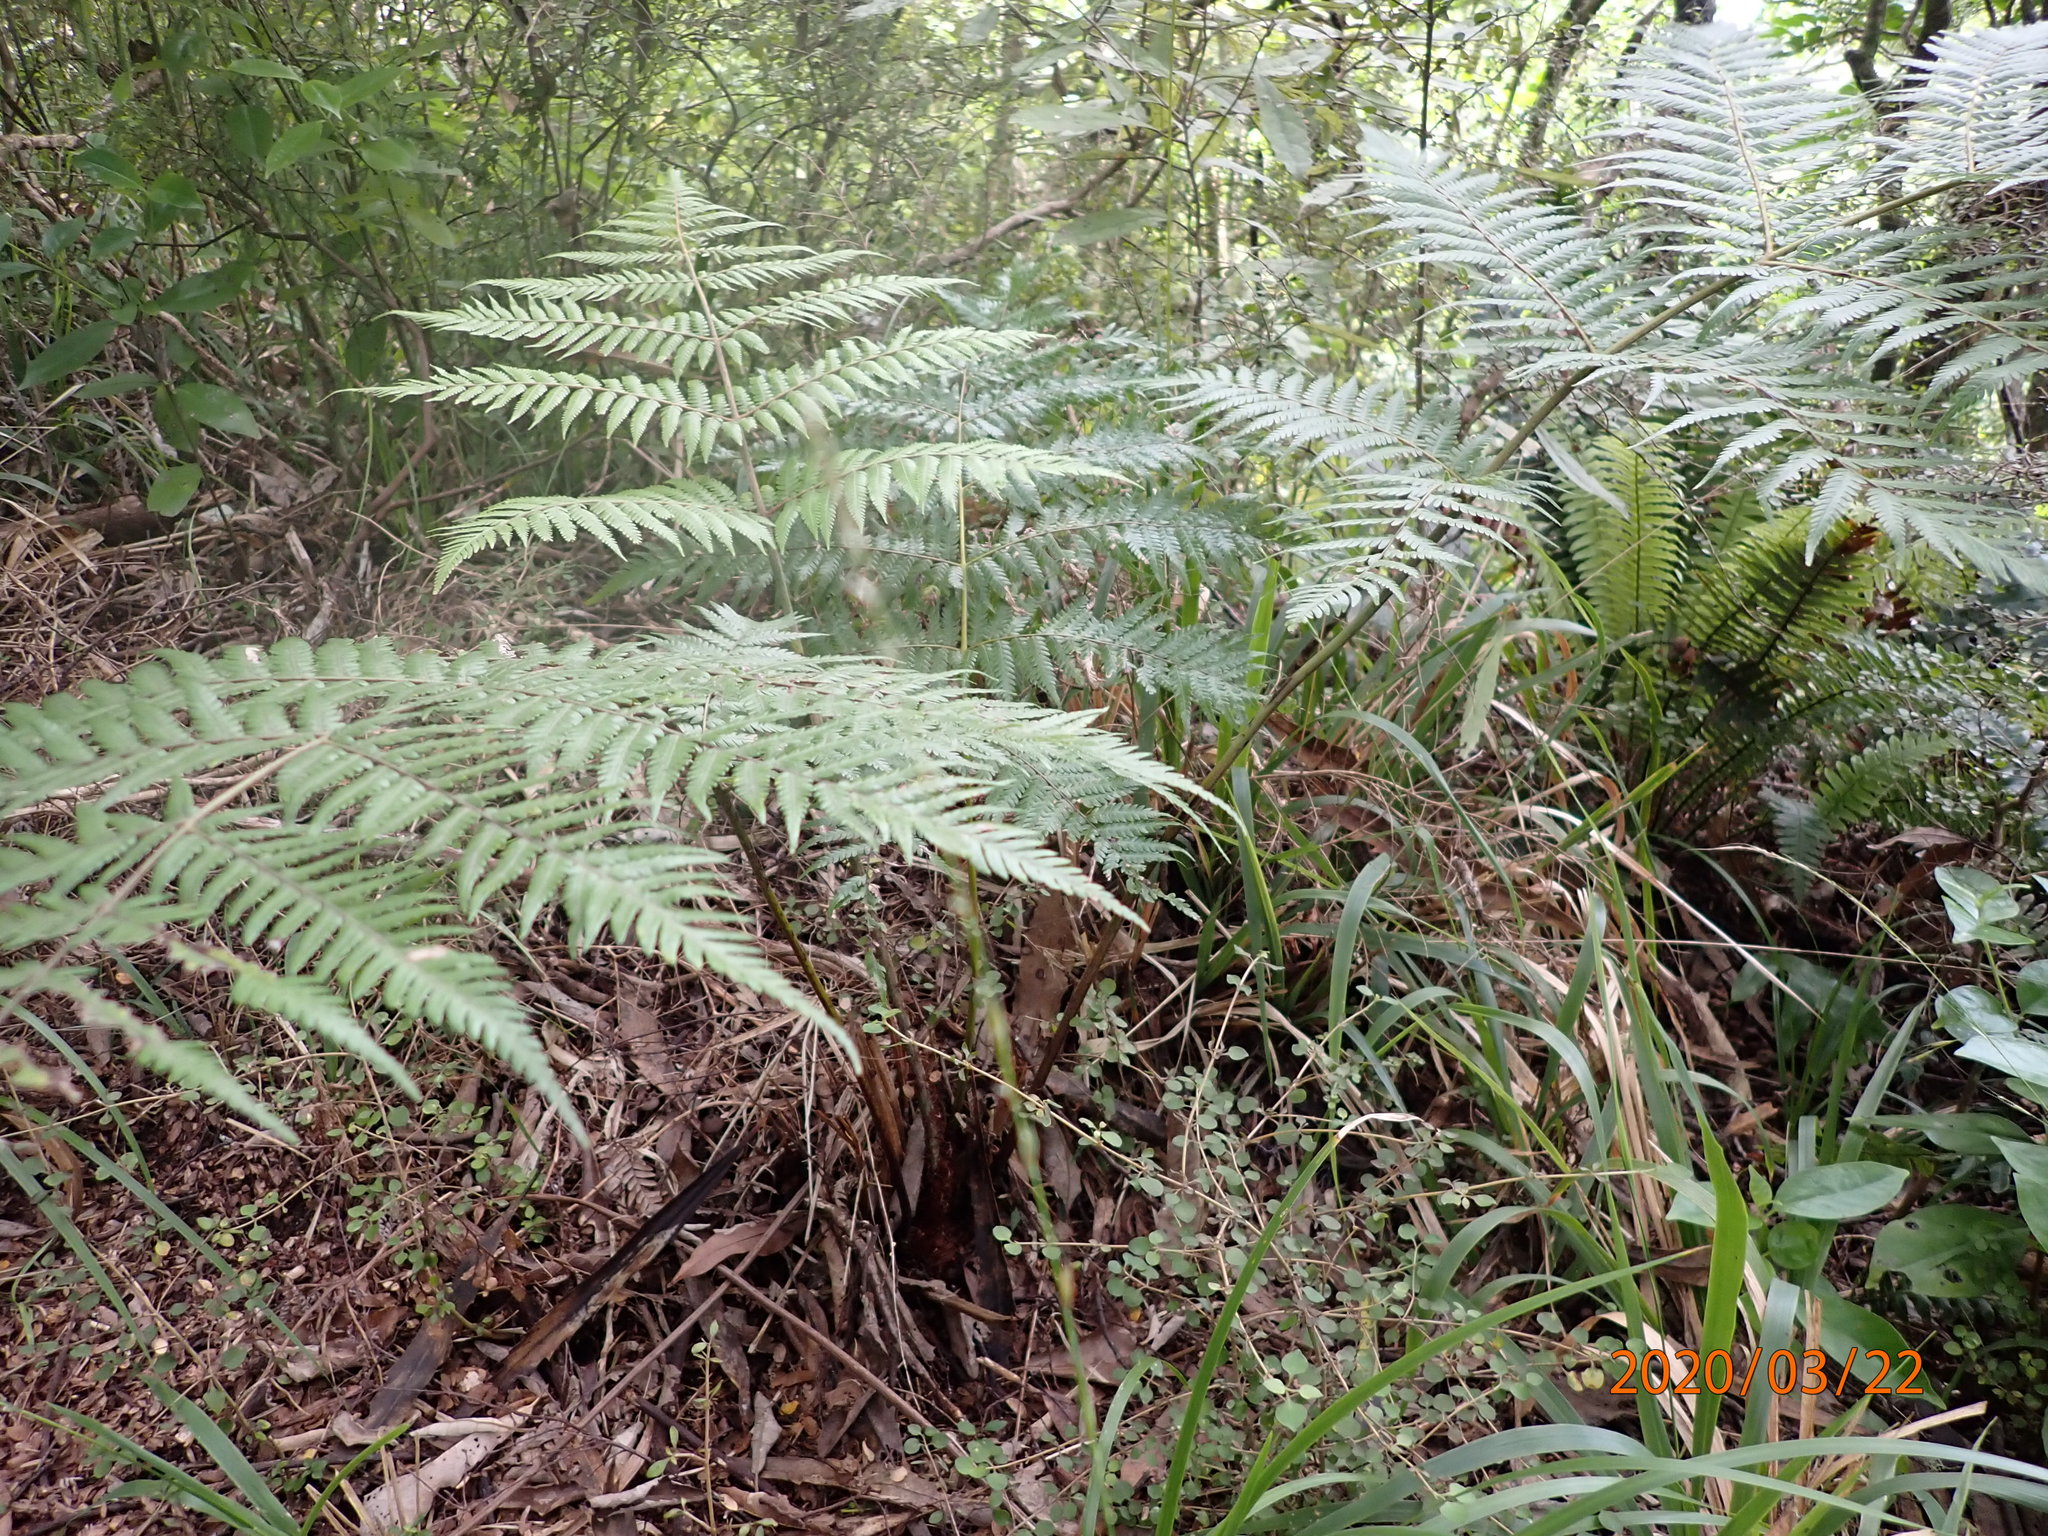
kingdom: Plantae
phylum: Tracheophyta
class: Polypodiopsida
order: Cyatheales
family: Cyatheaceae
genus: Alsophila
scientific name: Alsophila dealbata
